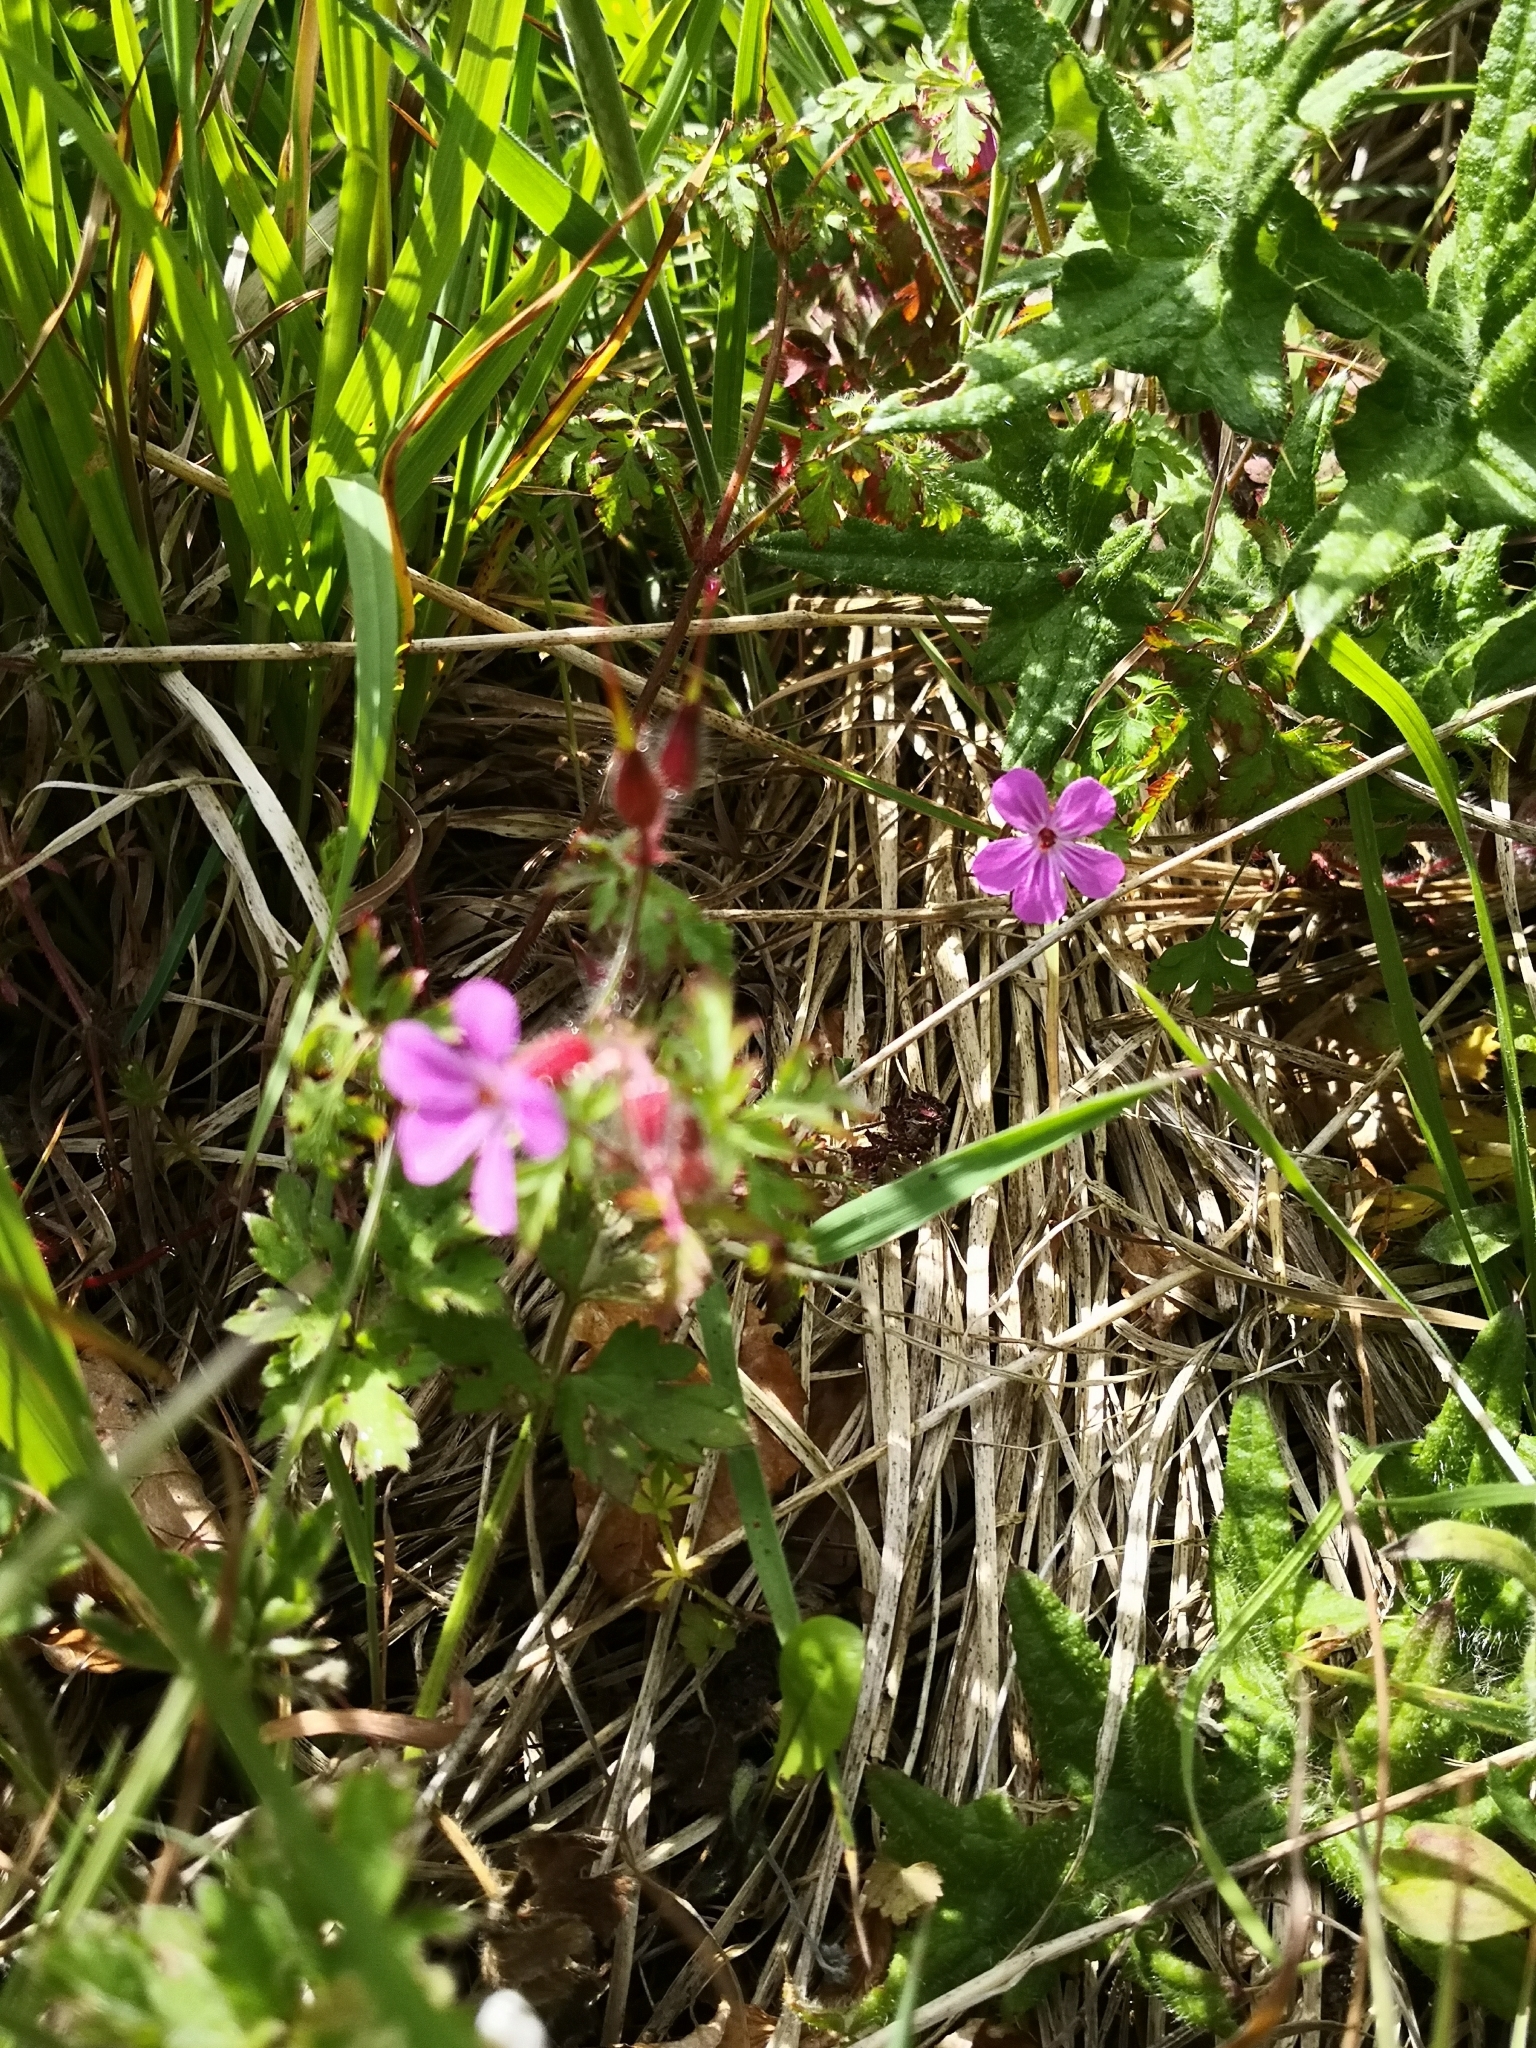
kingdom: Plantae
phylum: Tracheophyta
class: Magnoliopsida
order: Geraniales
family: Geraniaceae
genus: Geranium
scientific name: Geranium robertianum
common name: Herb-robert
